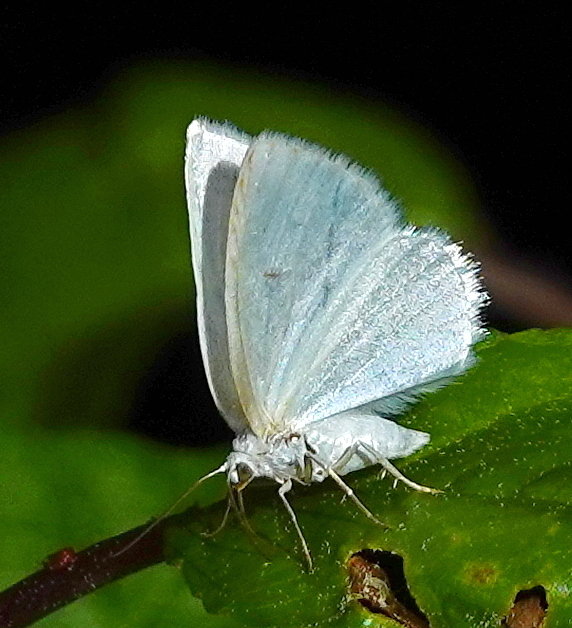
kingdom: Animalia
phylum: Arthropoda
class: Insecta
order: Lepidoptera
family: Geometridae
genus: Lomographa
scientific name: Lomographa vestaliata
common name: White spring moth
